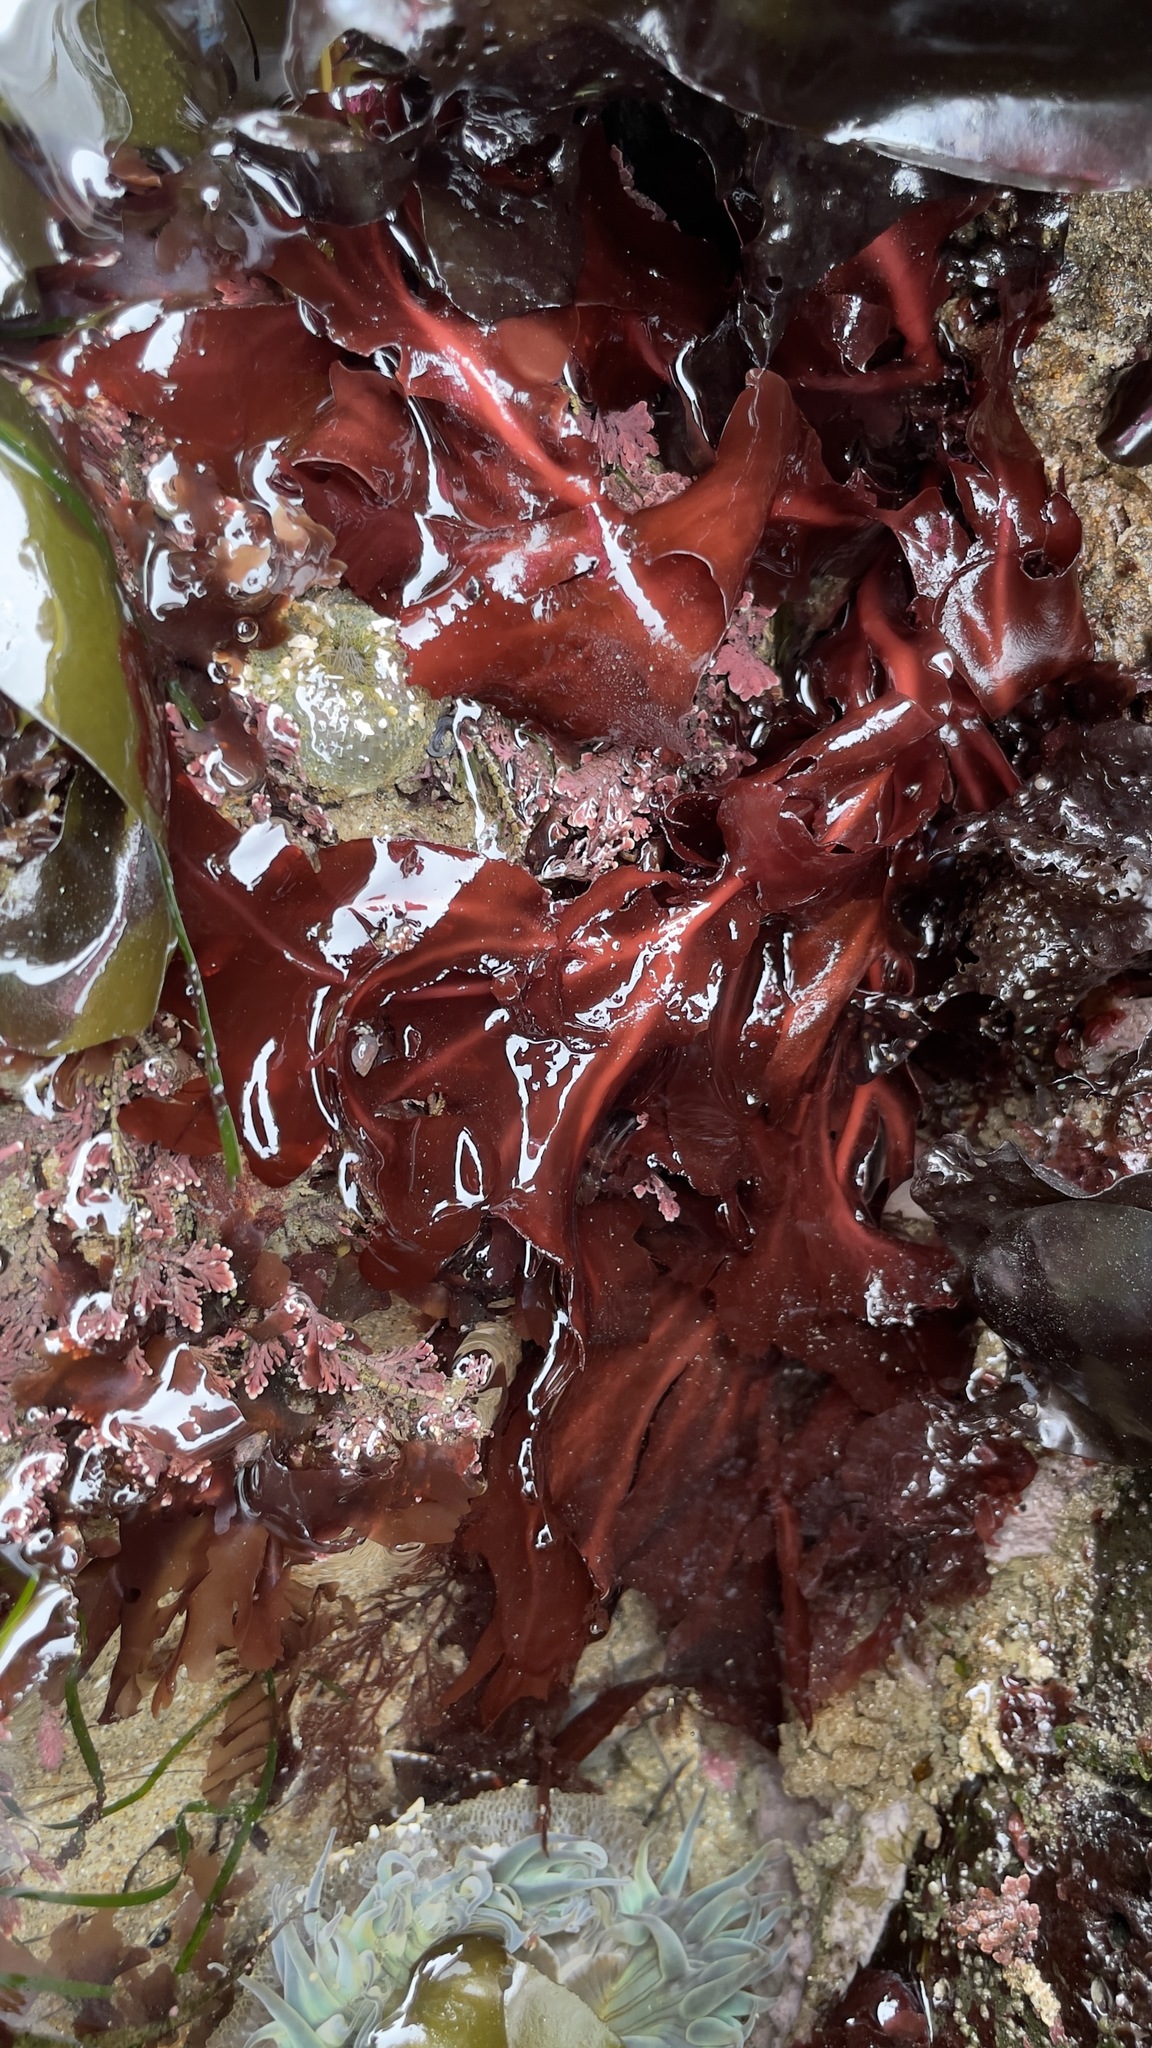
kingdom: Plantae
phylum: Rhodophyta
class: Florideophyceae
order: Gigartinales
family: Kallymeniaceae
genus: Erythrophyllum
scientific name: Erythrophyllum delesserioides
